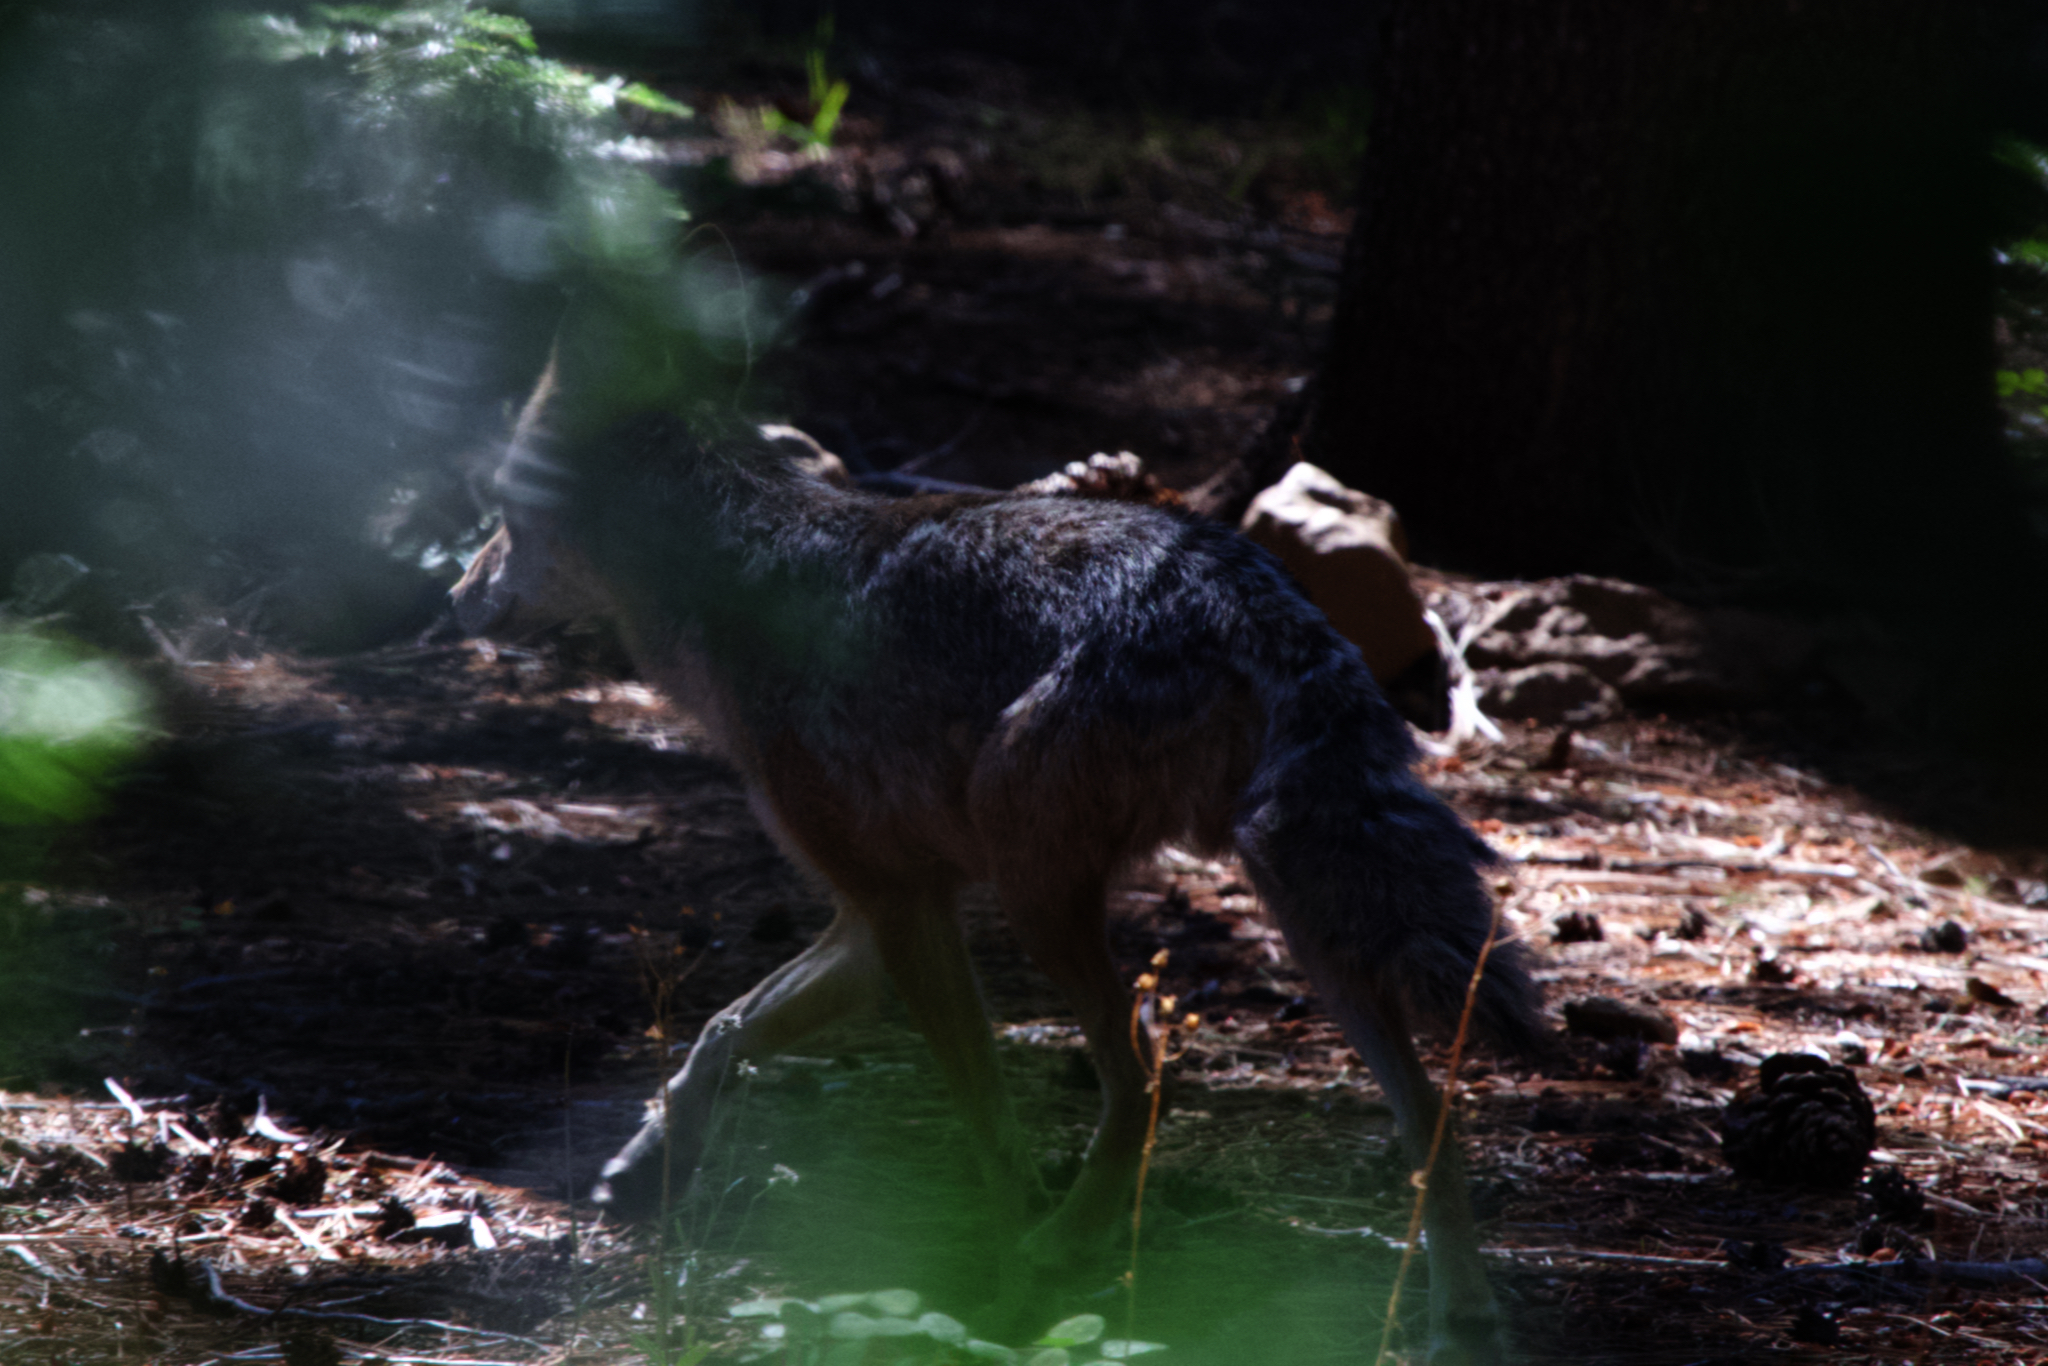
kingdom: Animalia
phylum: Chordata
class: Mammalia
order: Carnivora
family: Canidae
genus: Canis
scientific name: Canis latrans
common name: Coyote
